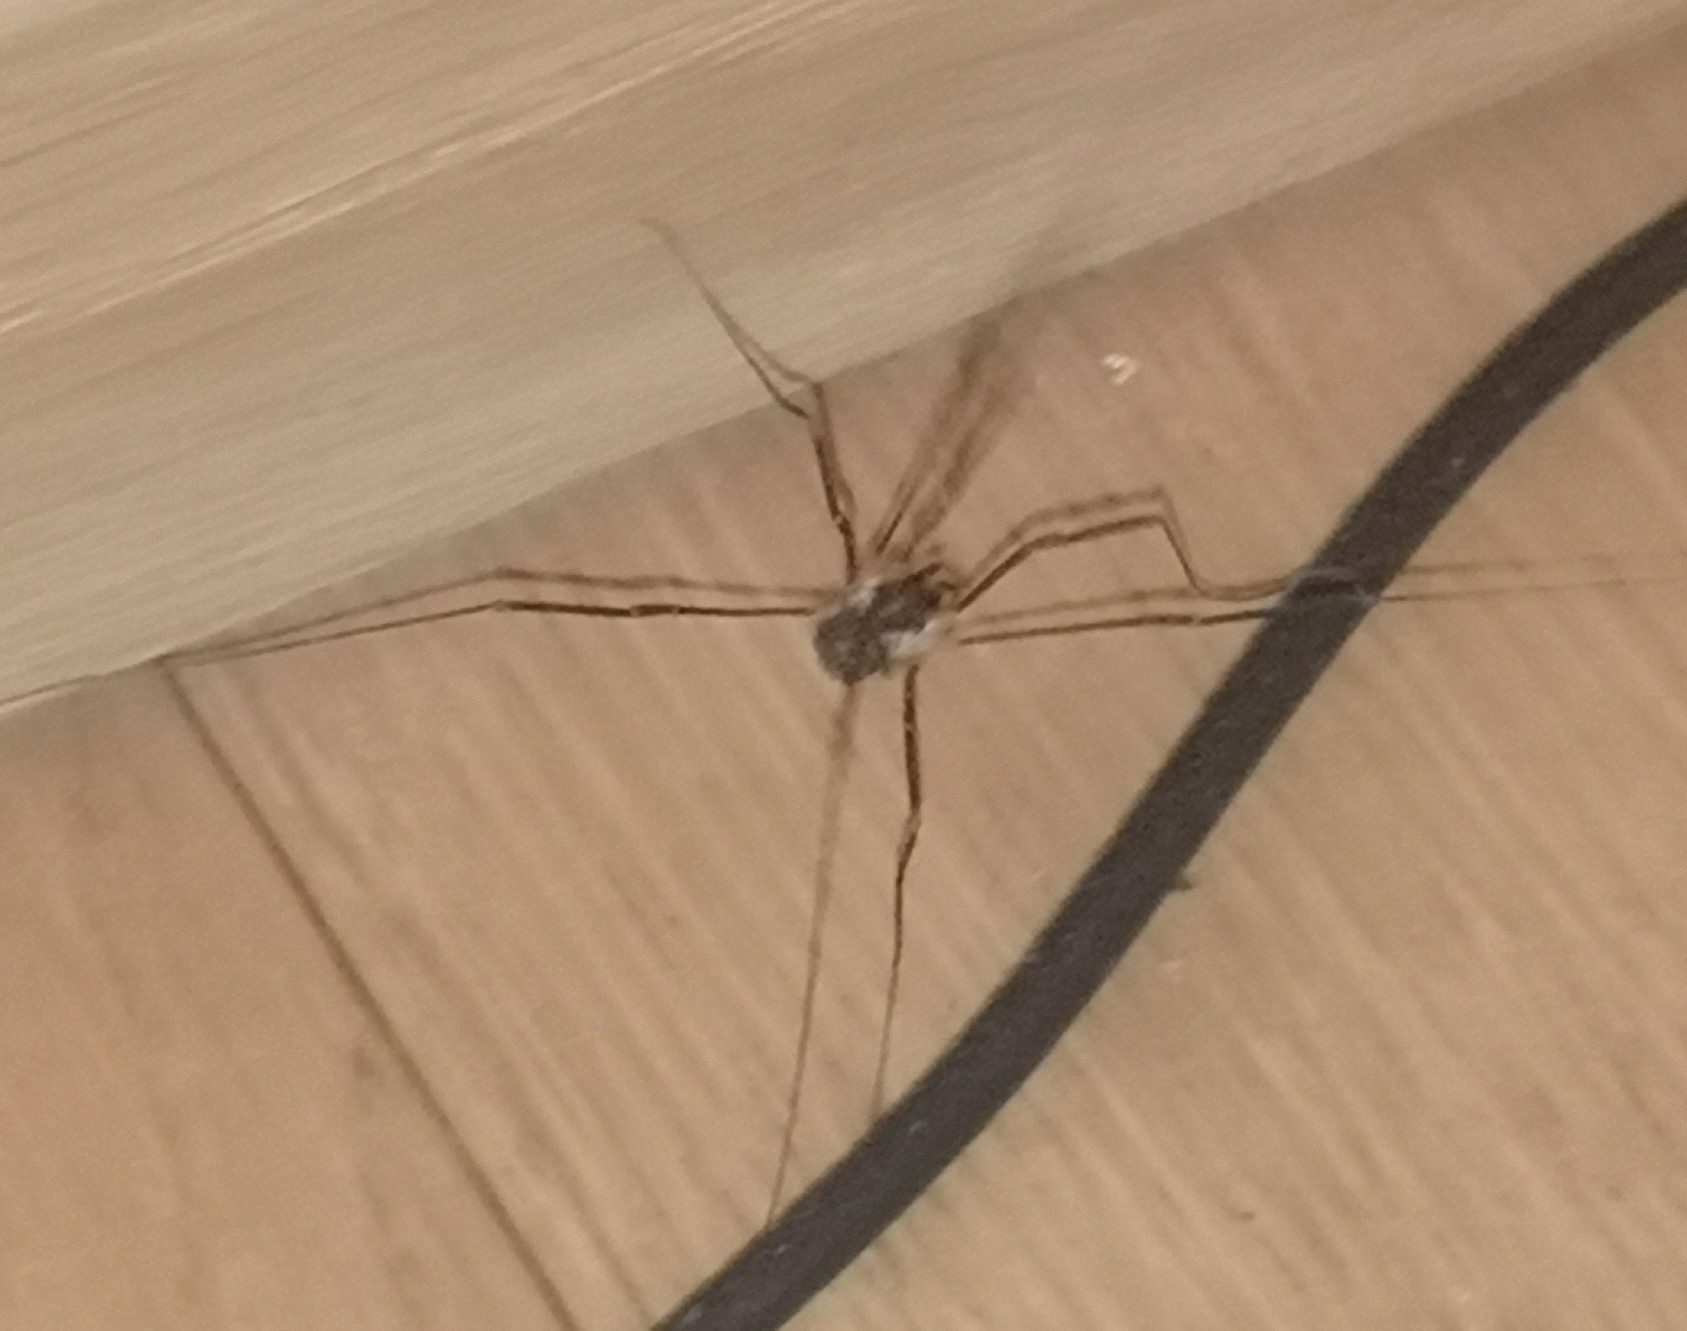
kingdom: Animalia
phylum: Arthropoda
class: Arachnida
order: Opiliones
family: Phalangiidae
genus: Mitopus
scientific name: Mitopus morio
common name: Saddleback harvestman
